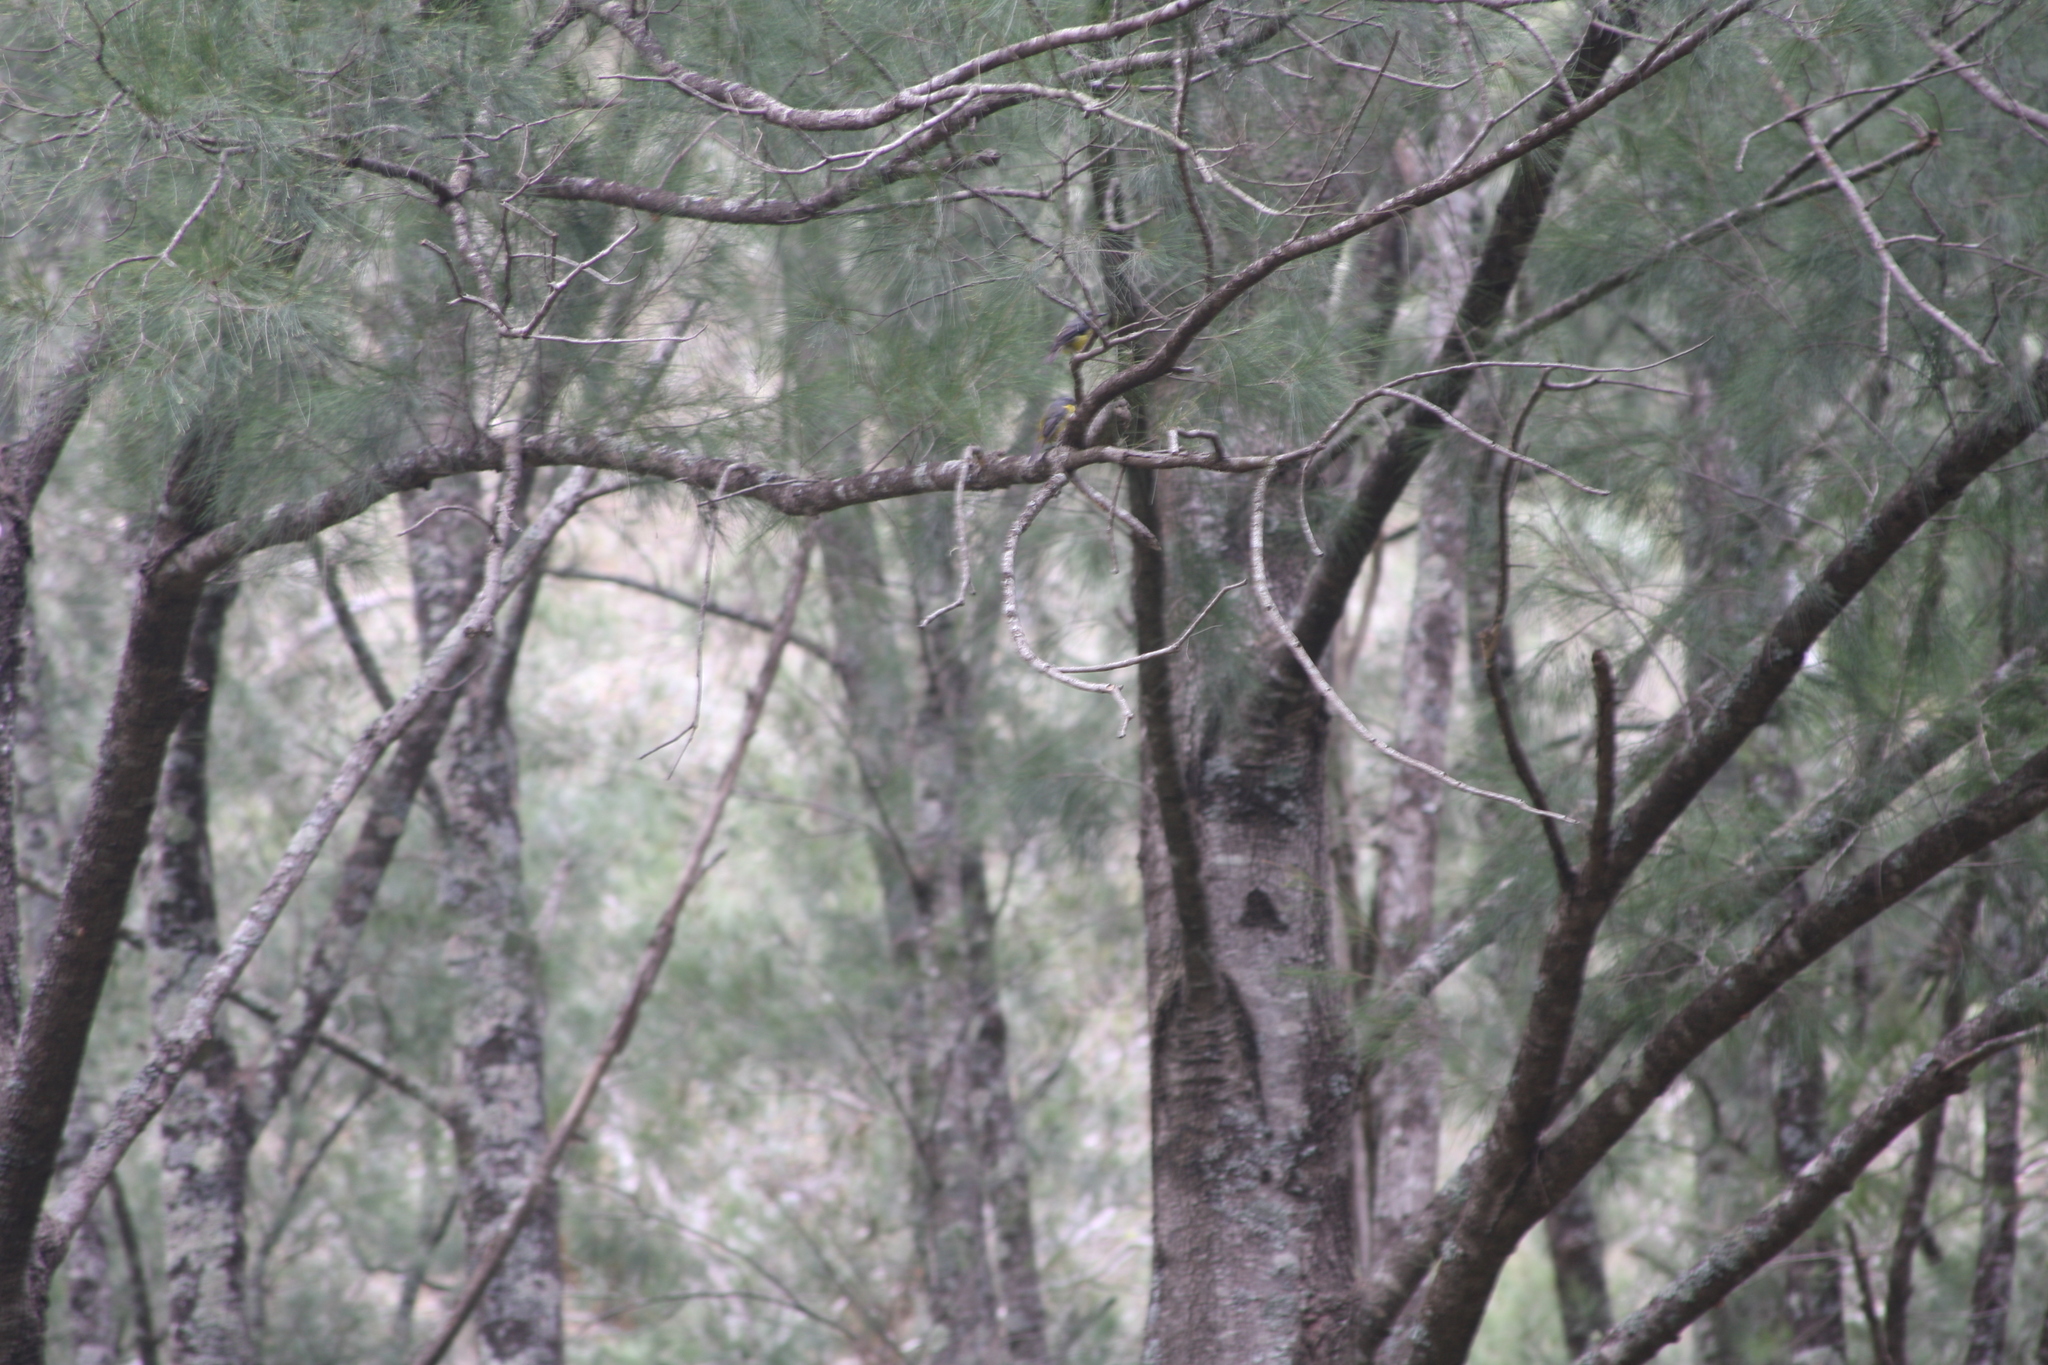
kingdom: Animalia
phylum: Chordata
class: Aves
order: Passeriformes
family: Petroicidae
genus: Eopsaltria
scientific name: Eopsaltria australis
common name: Eastern yellow robin
